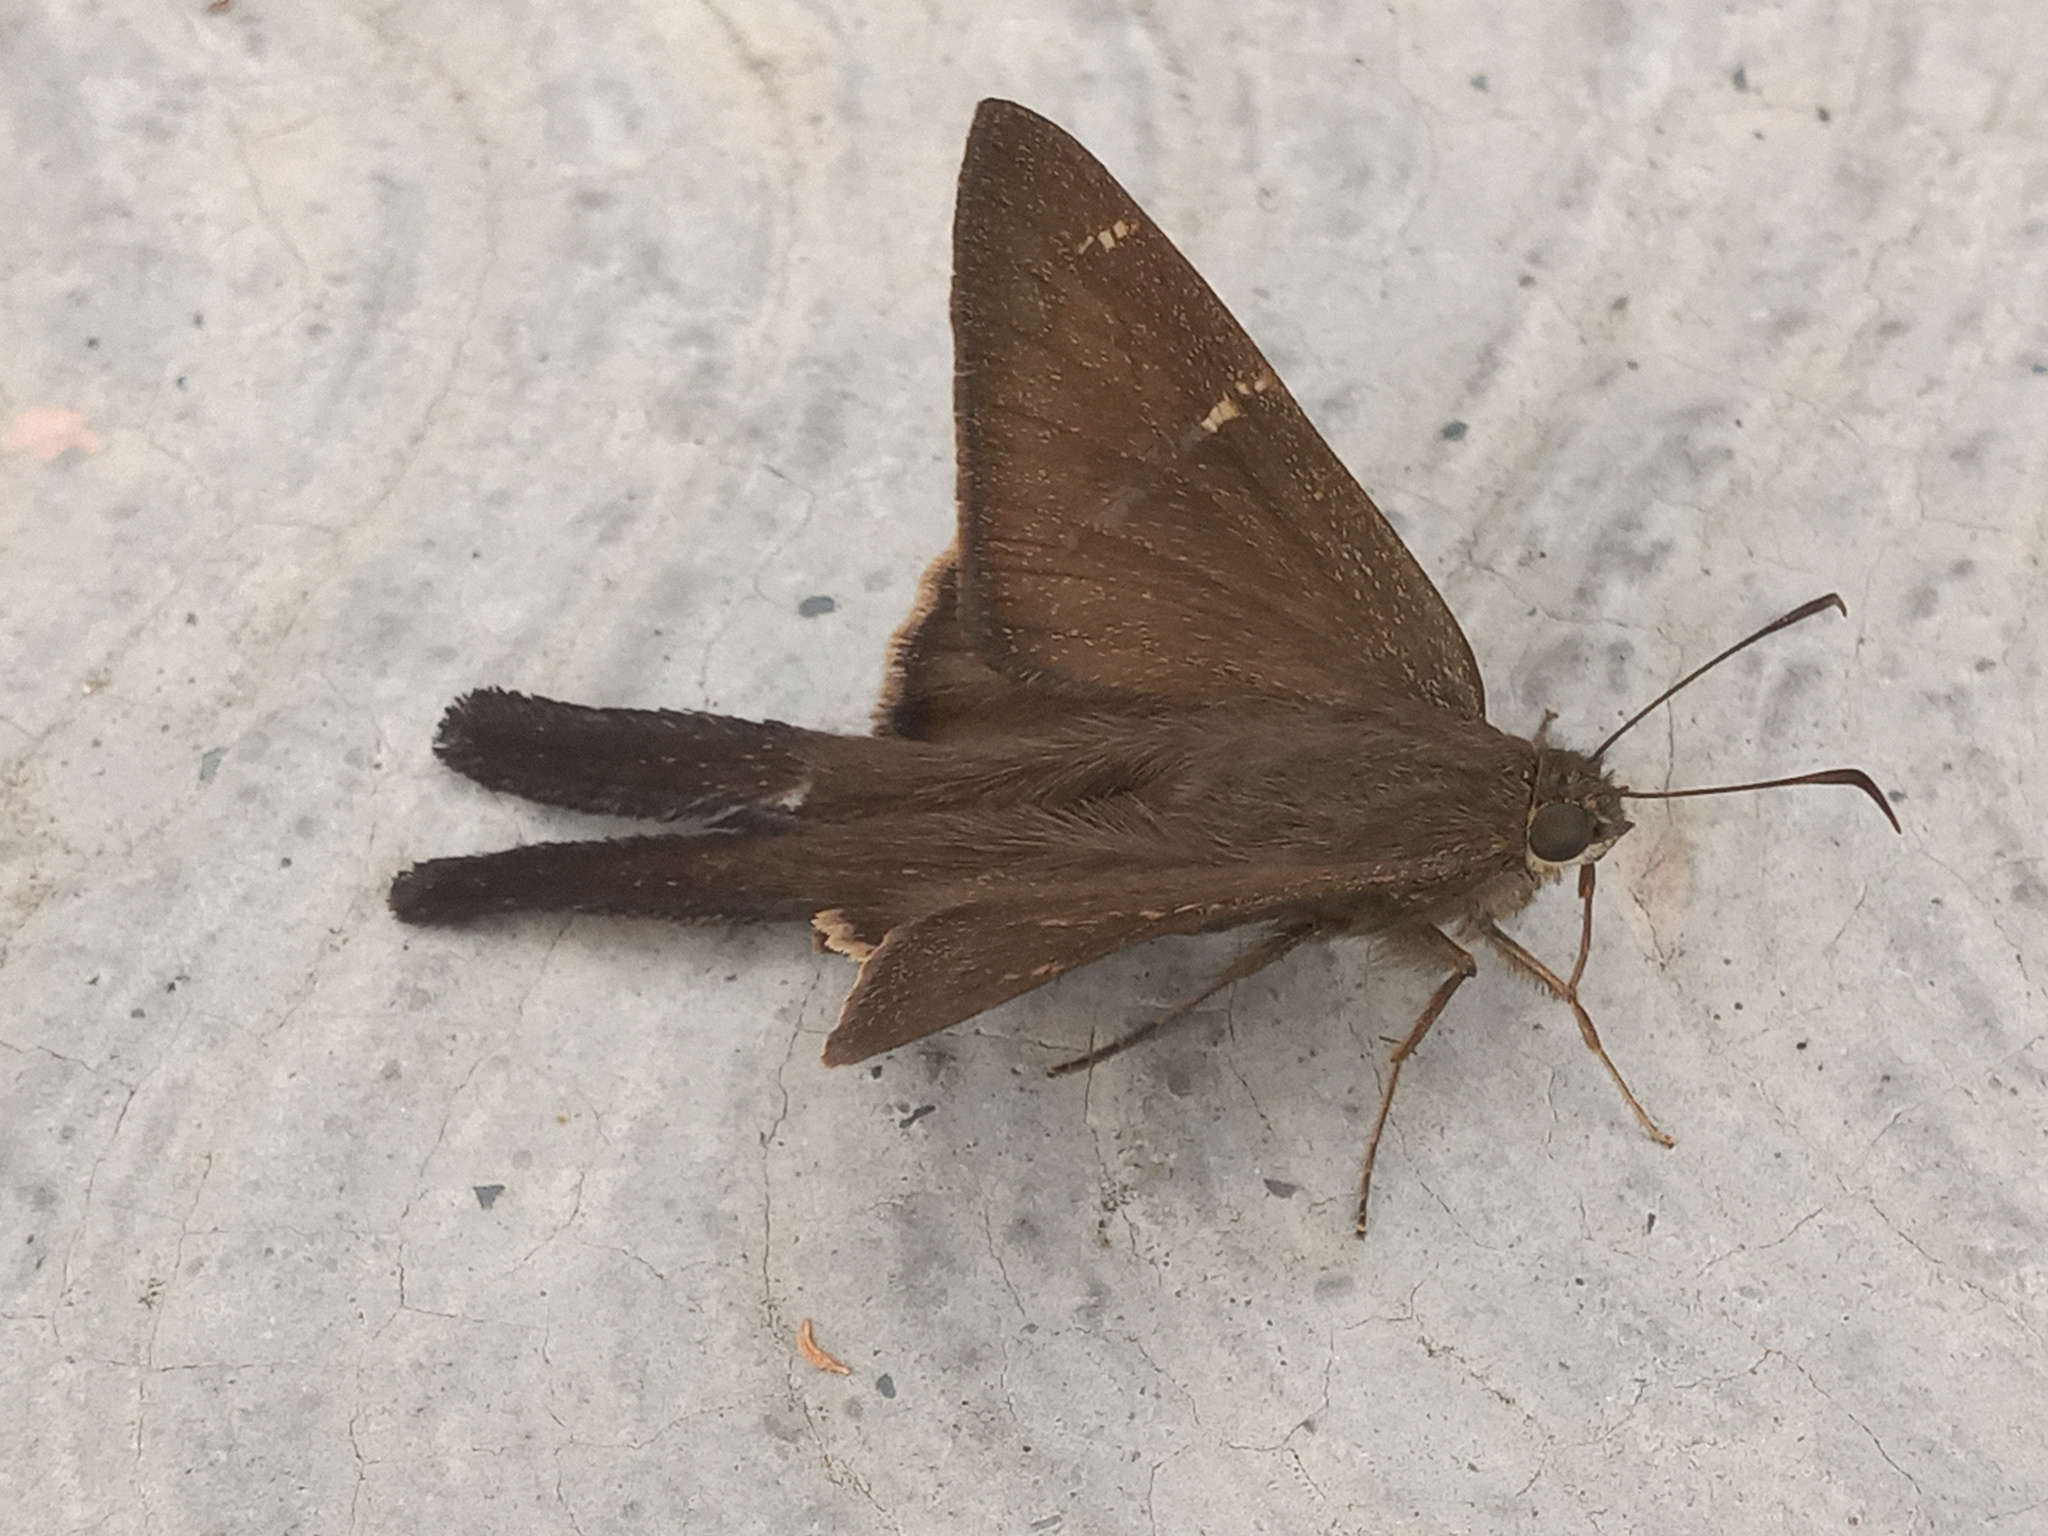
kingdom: Animalia
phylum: Arthropoda
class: Insecta
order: Lepidoptera
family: Hesperiidae
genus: Urbanus
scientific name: Urbanus procne
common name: Brown longtail
